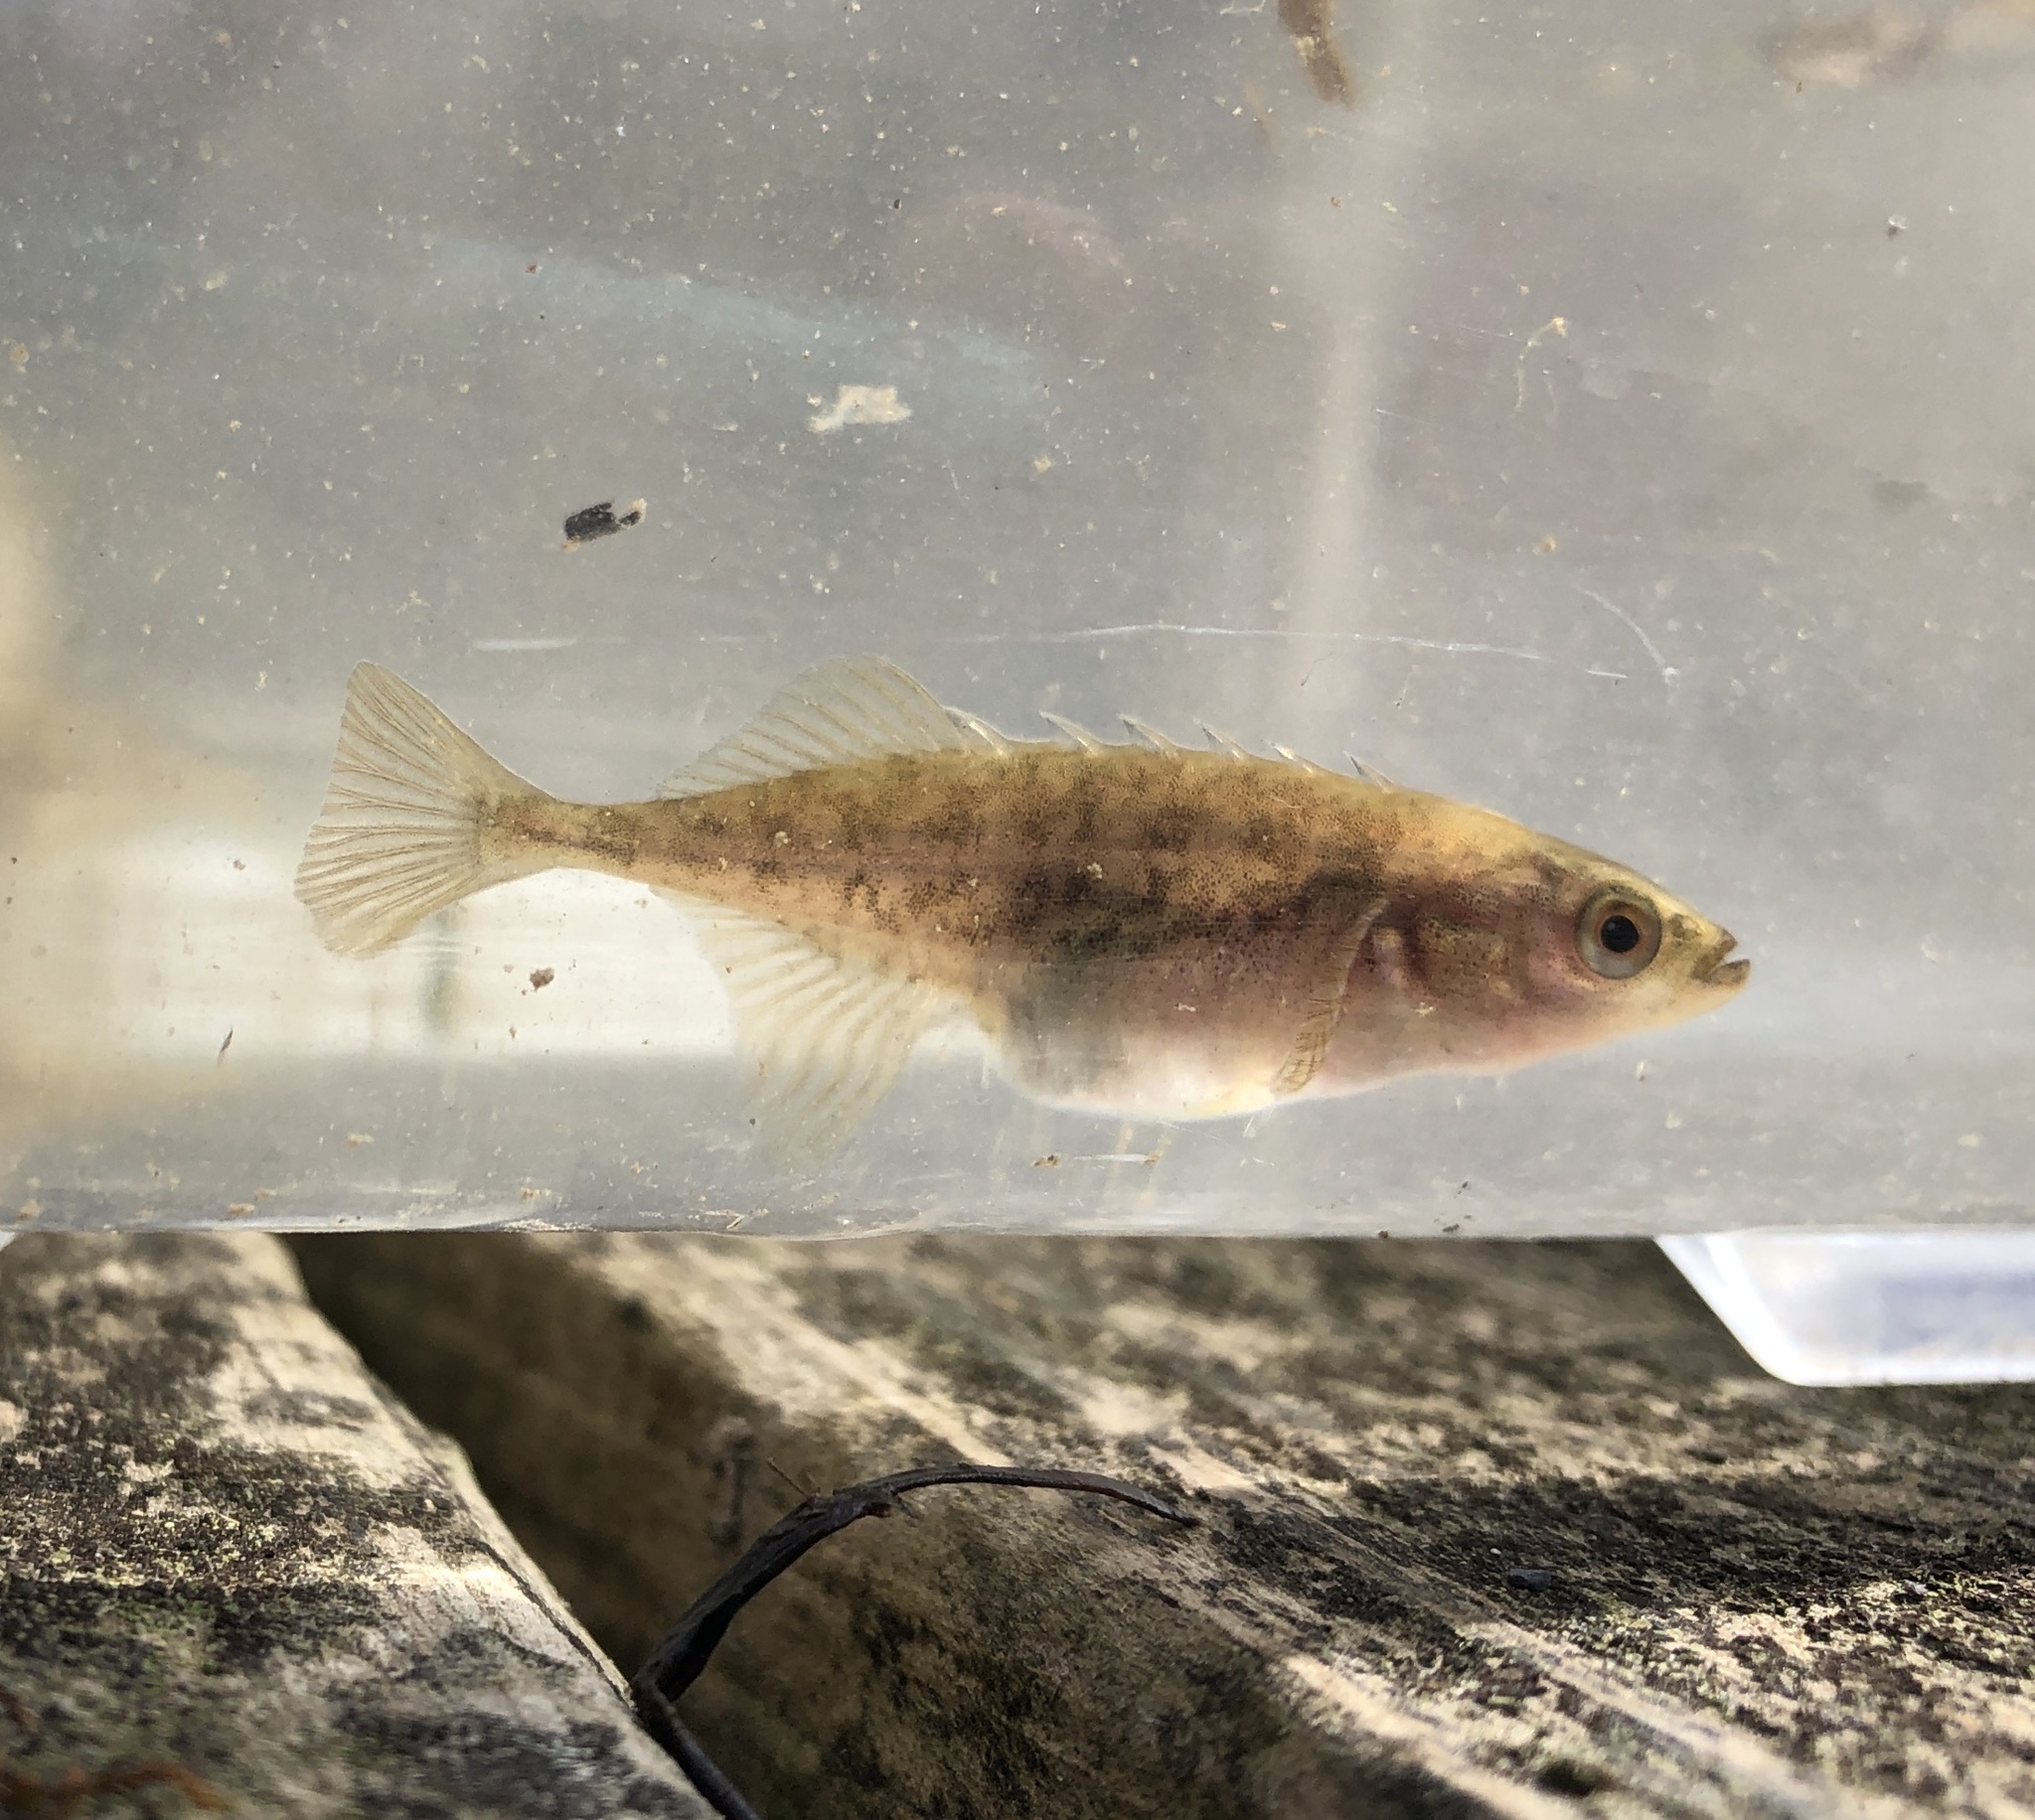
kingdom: Animalia
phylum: Chordata
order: Gasterosteiformes
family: Gasterosteidae
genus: Culaea
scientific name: Culaea inconstans
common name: Brook stickleback
